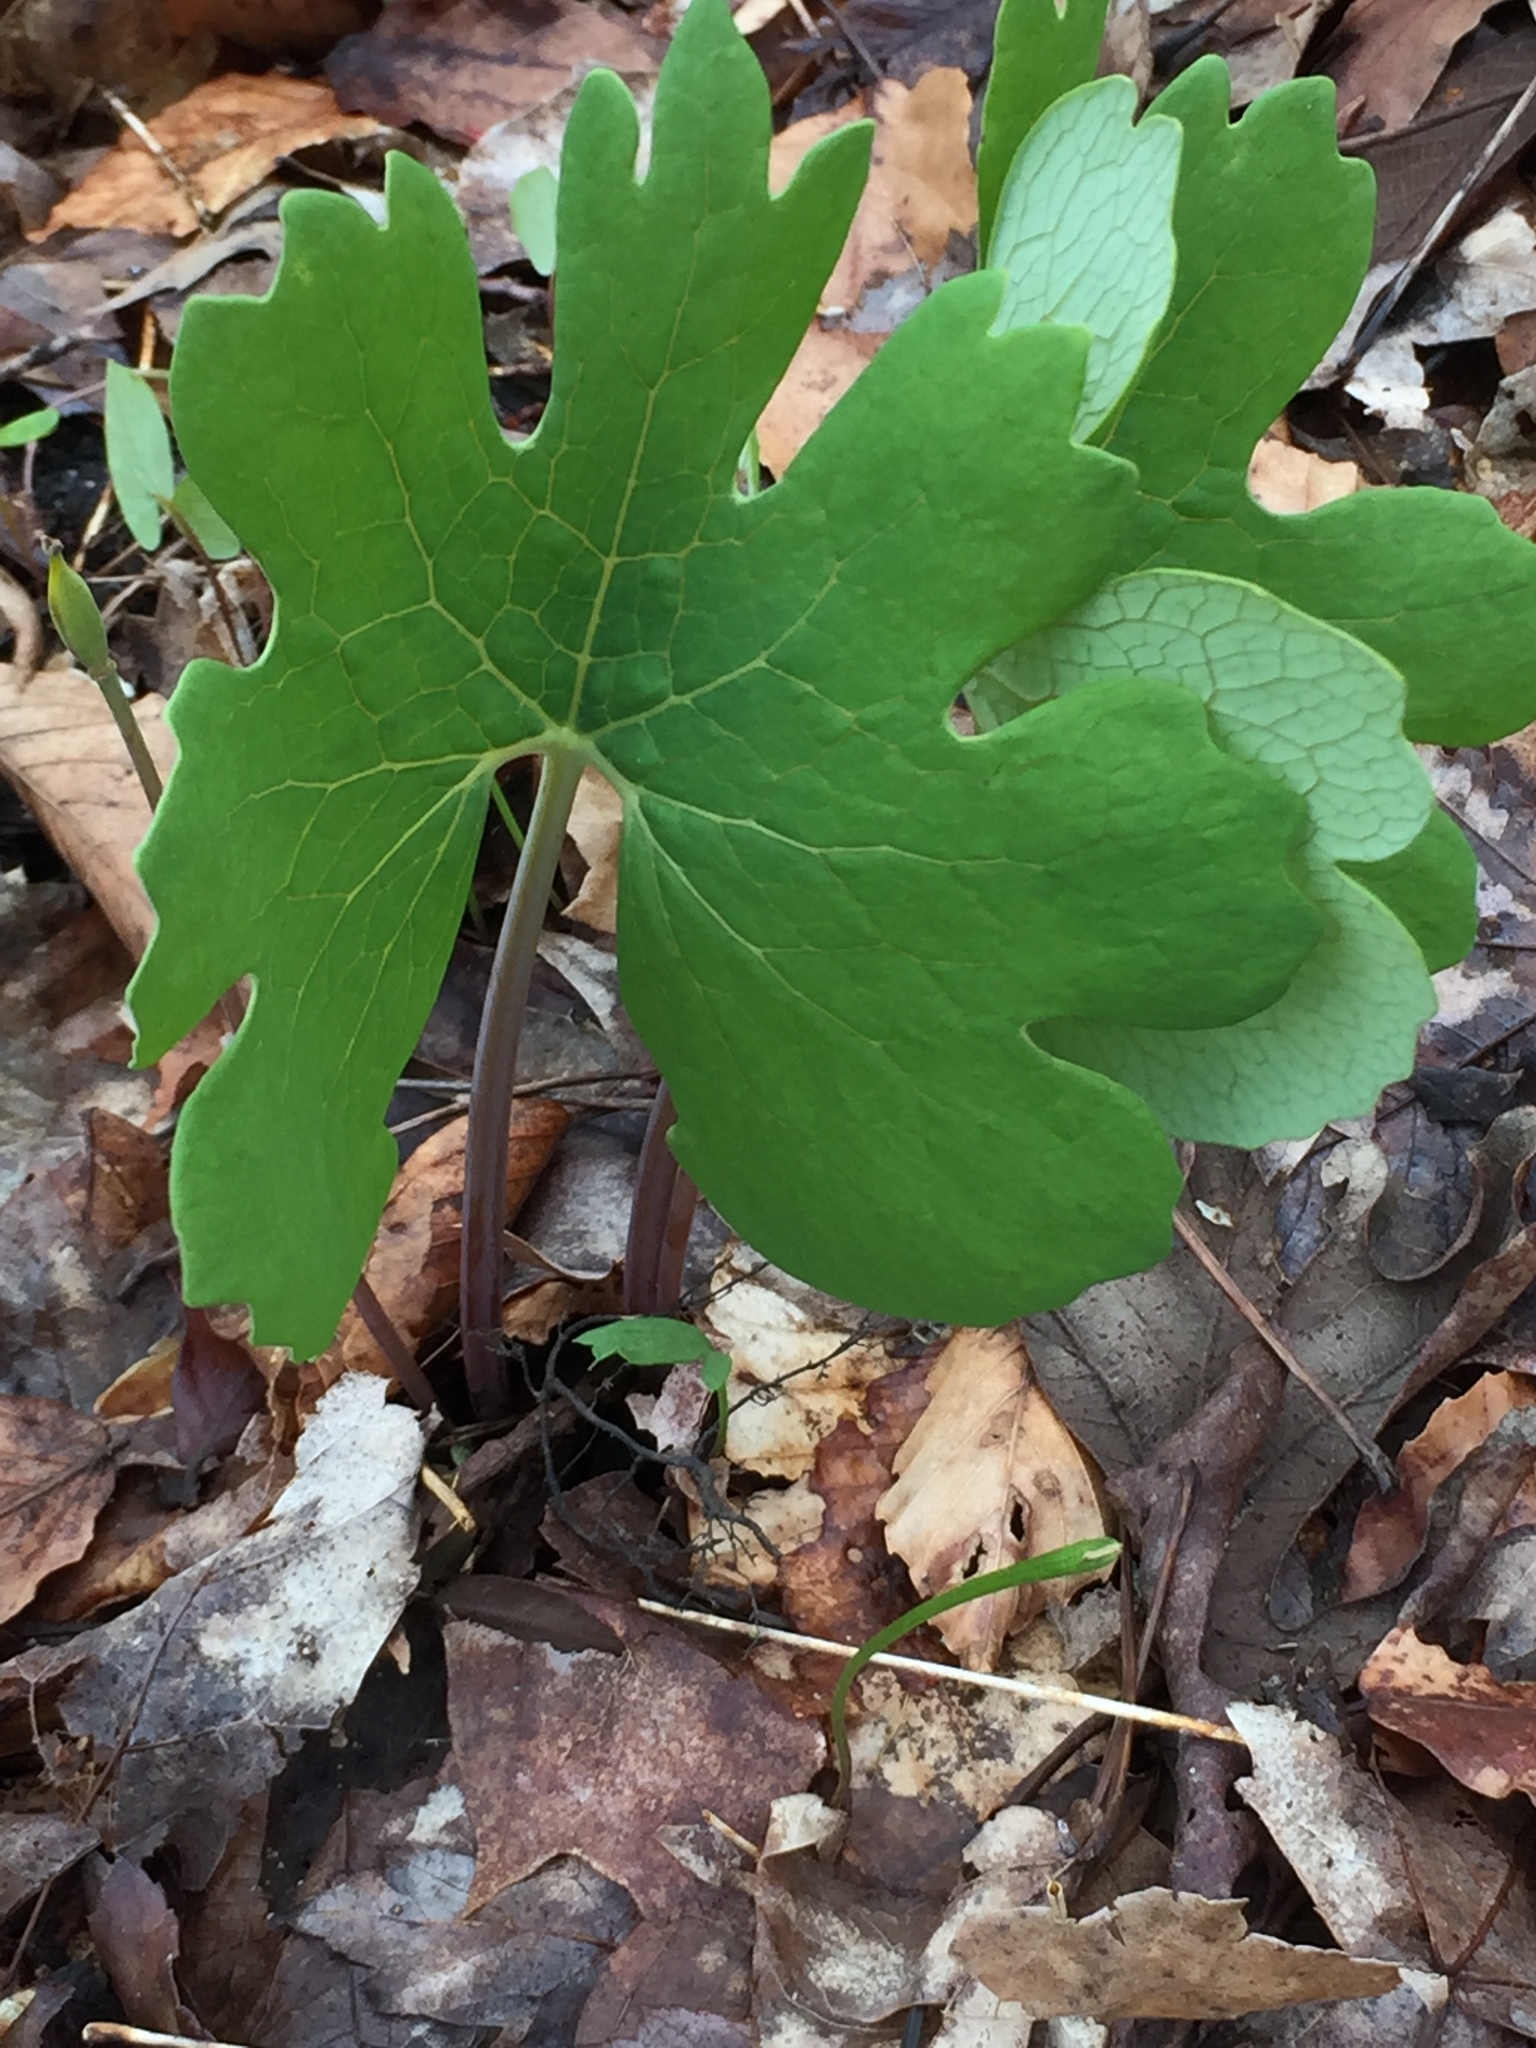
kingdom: Plantae
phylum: Tracheophyta
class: Magnoliopsida
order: Ranunculales
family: Papaveraceae
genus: Sanguinaria
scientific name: Sanguinaria canadensis
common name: Bloodroot
